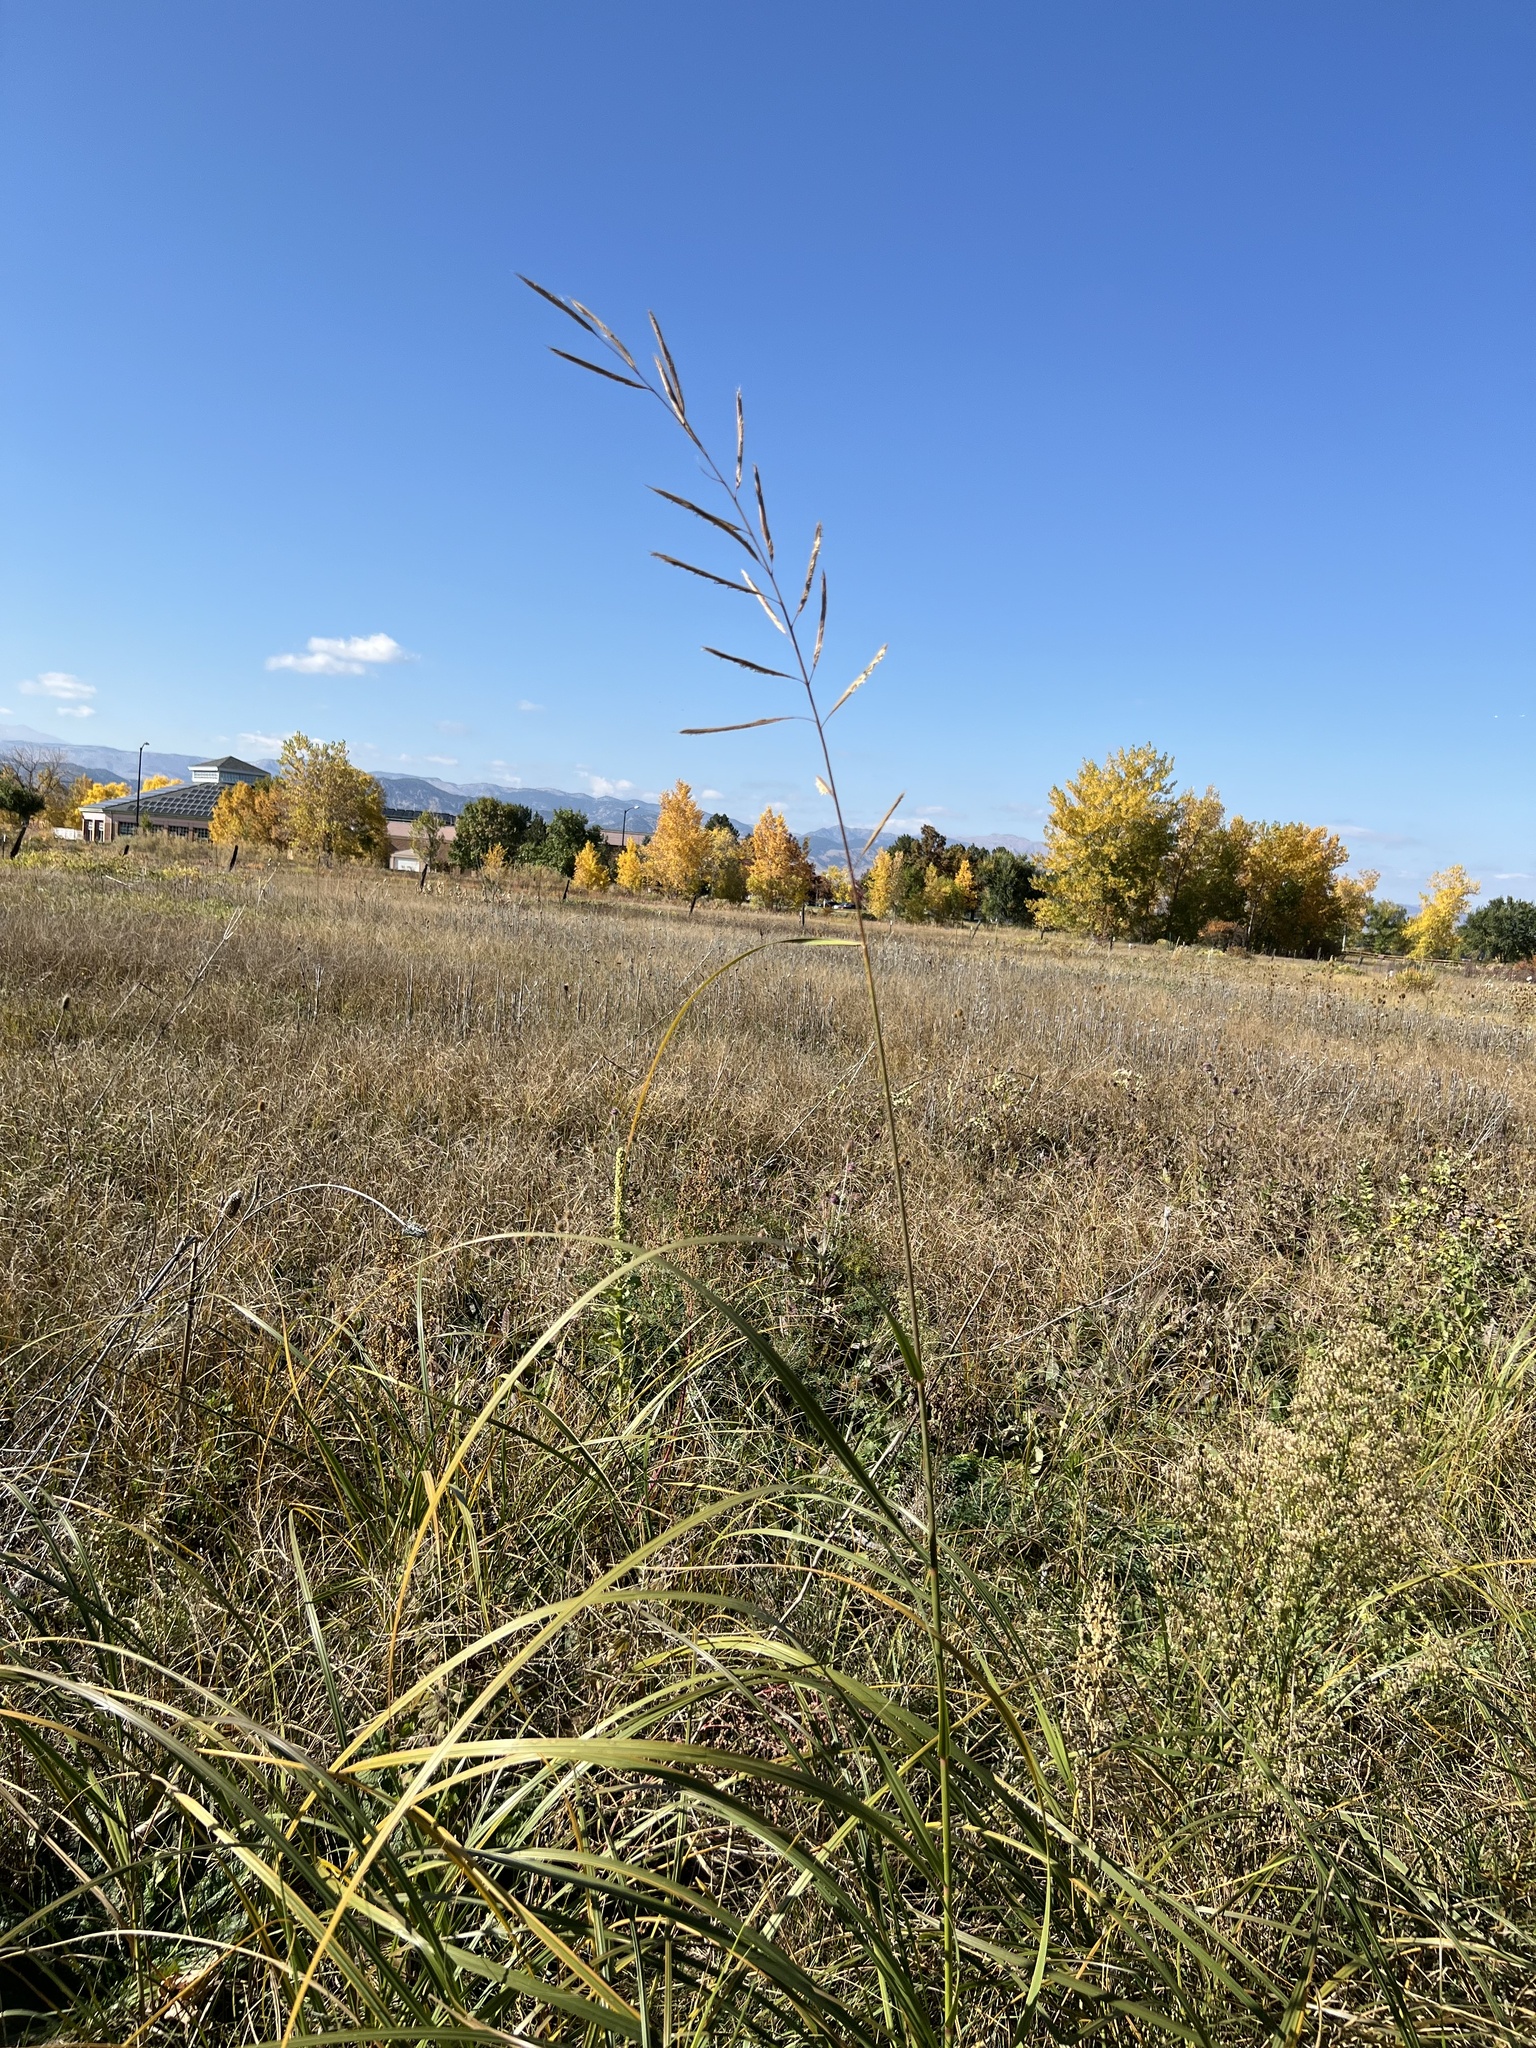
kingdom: Plantae
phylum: Tracheophyta
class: Liliopsida
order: Poales
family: Poaceae
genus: Sporobolus
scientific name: Sporobolus michauxianus
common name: Freshwater cordgrass
